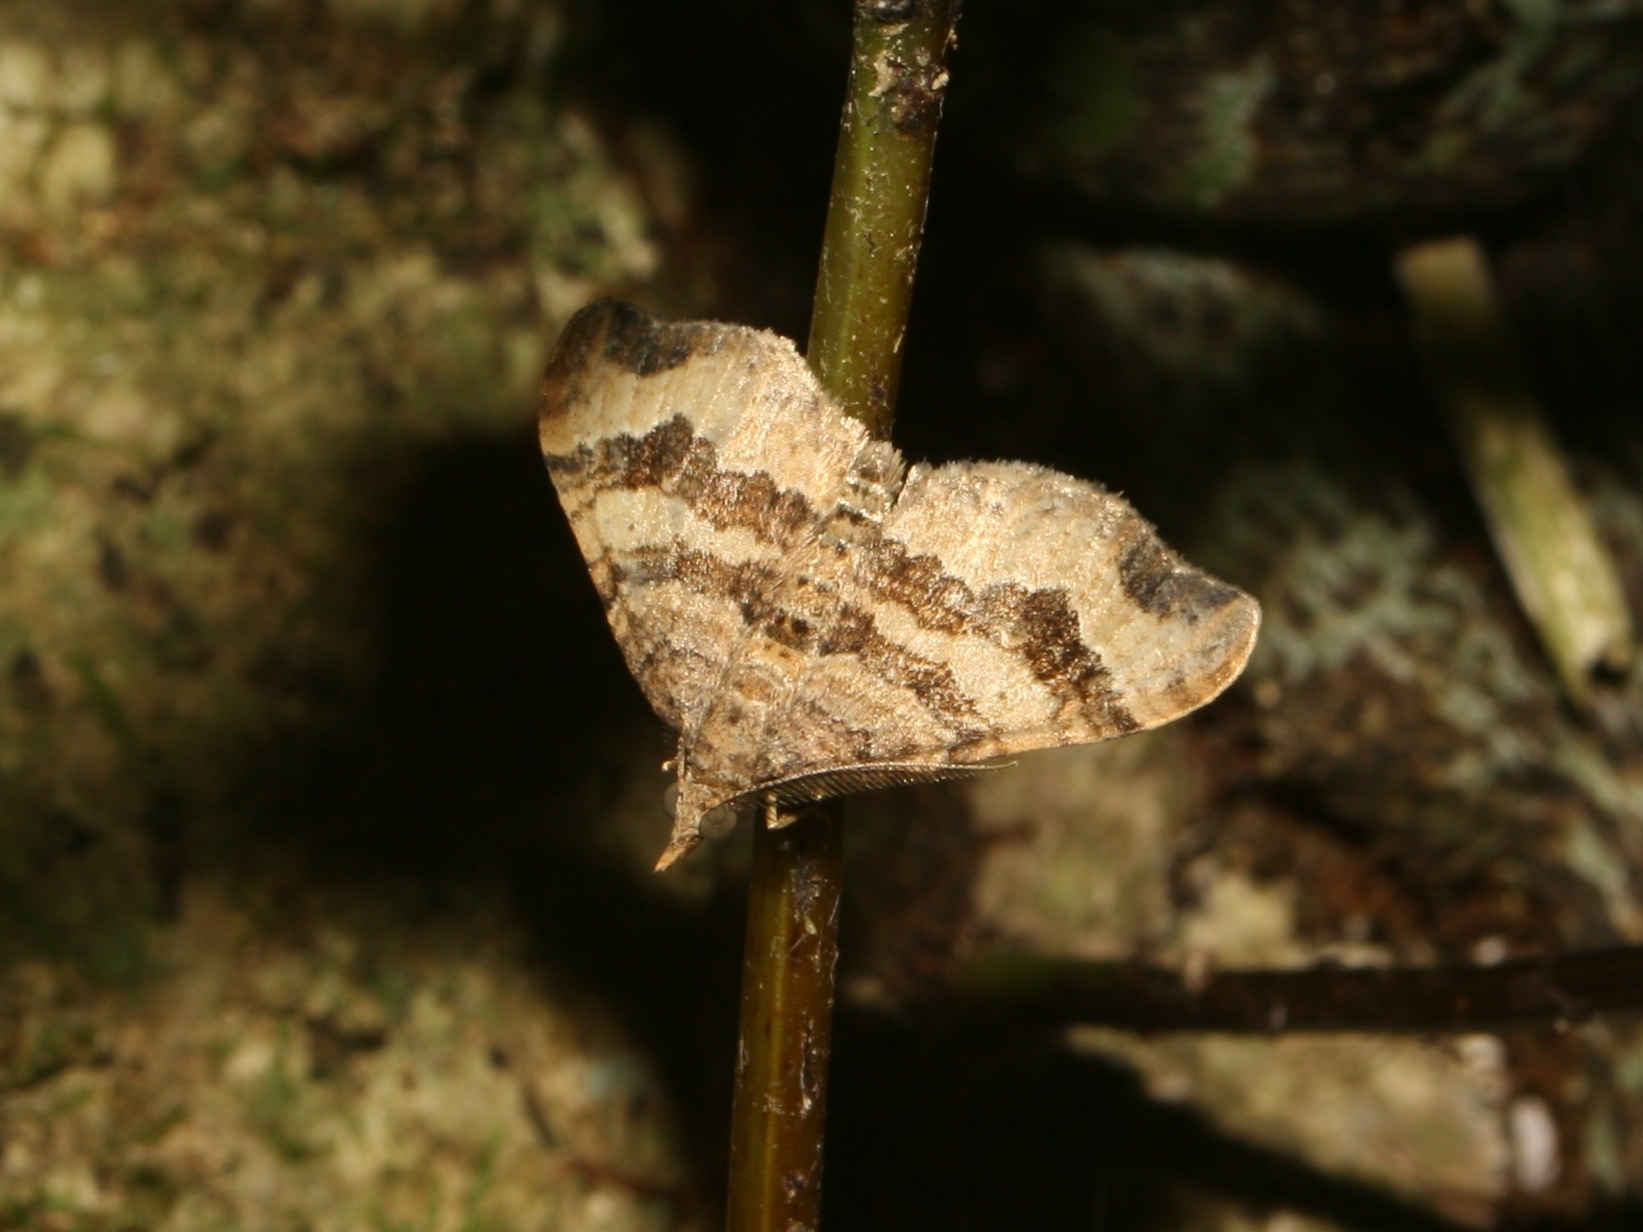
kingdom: Animalia
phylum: Arthropoda
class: Insecta
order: Lepidoptera
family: Geometridae
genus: Homodotis
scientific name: Homodotis megaspilata
